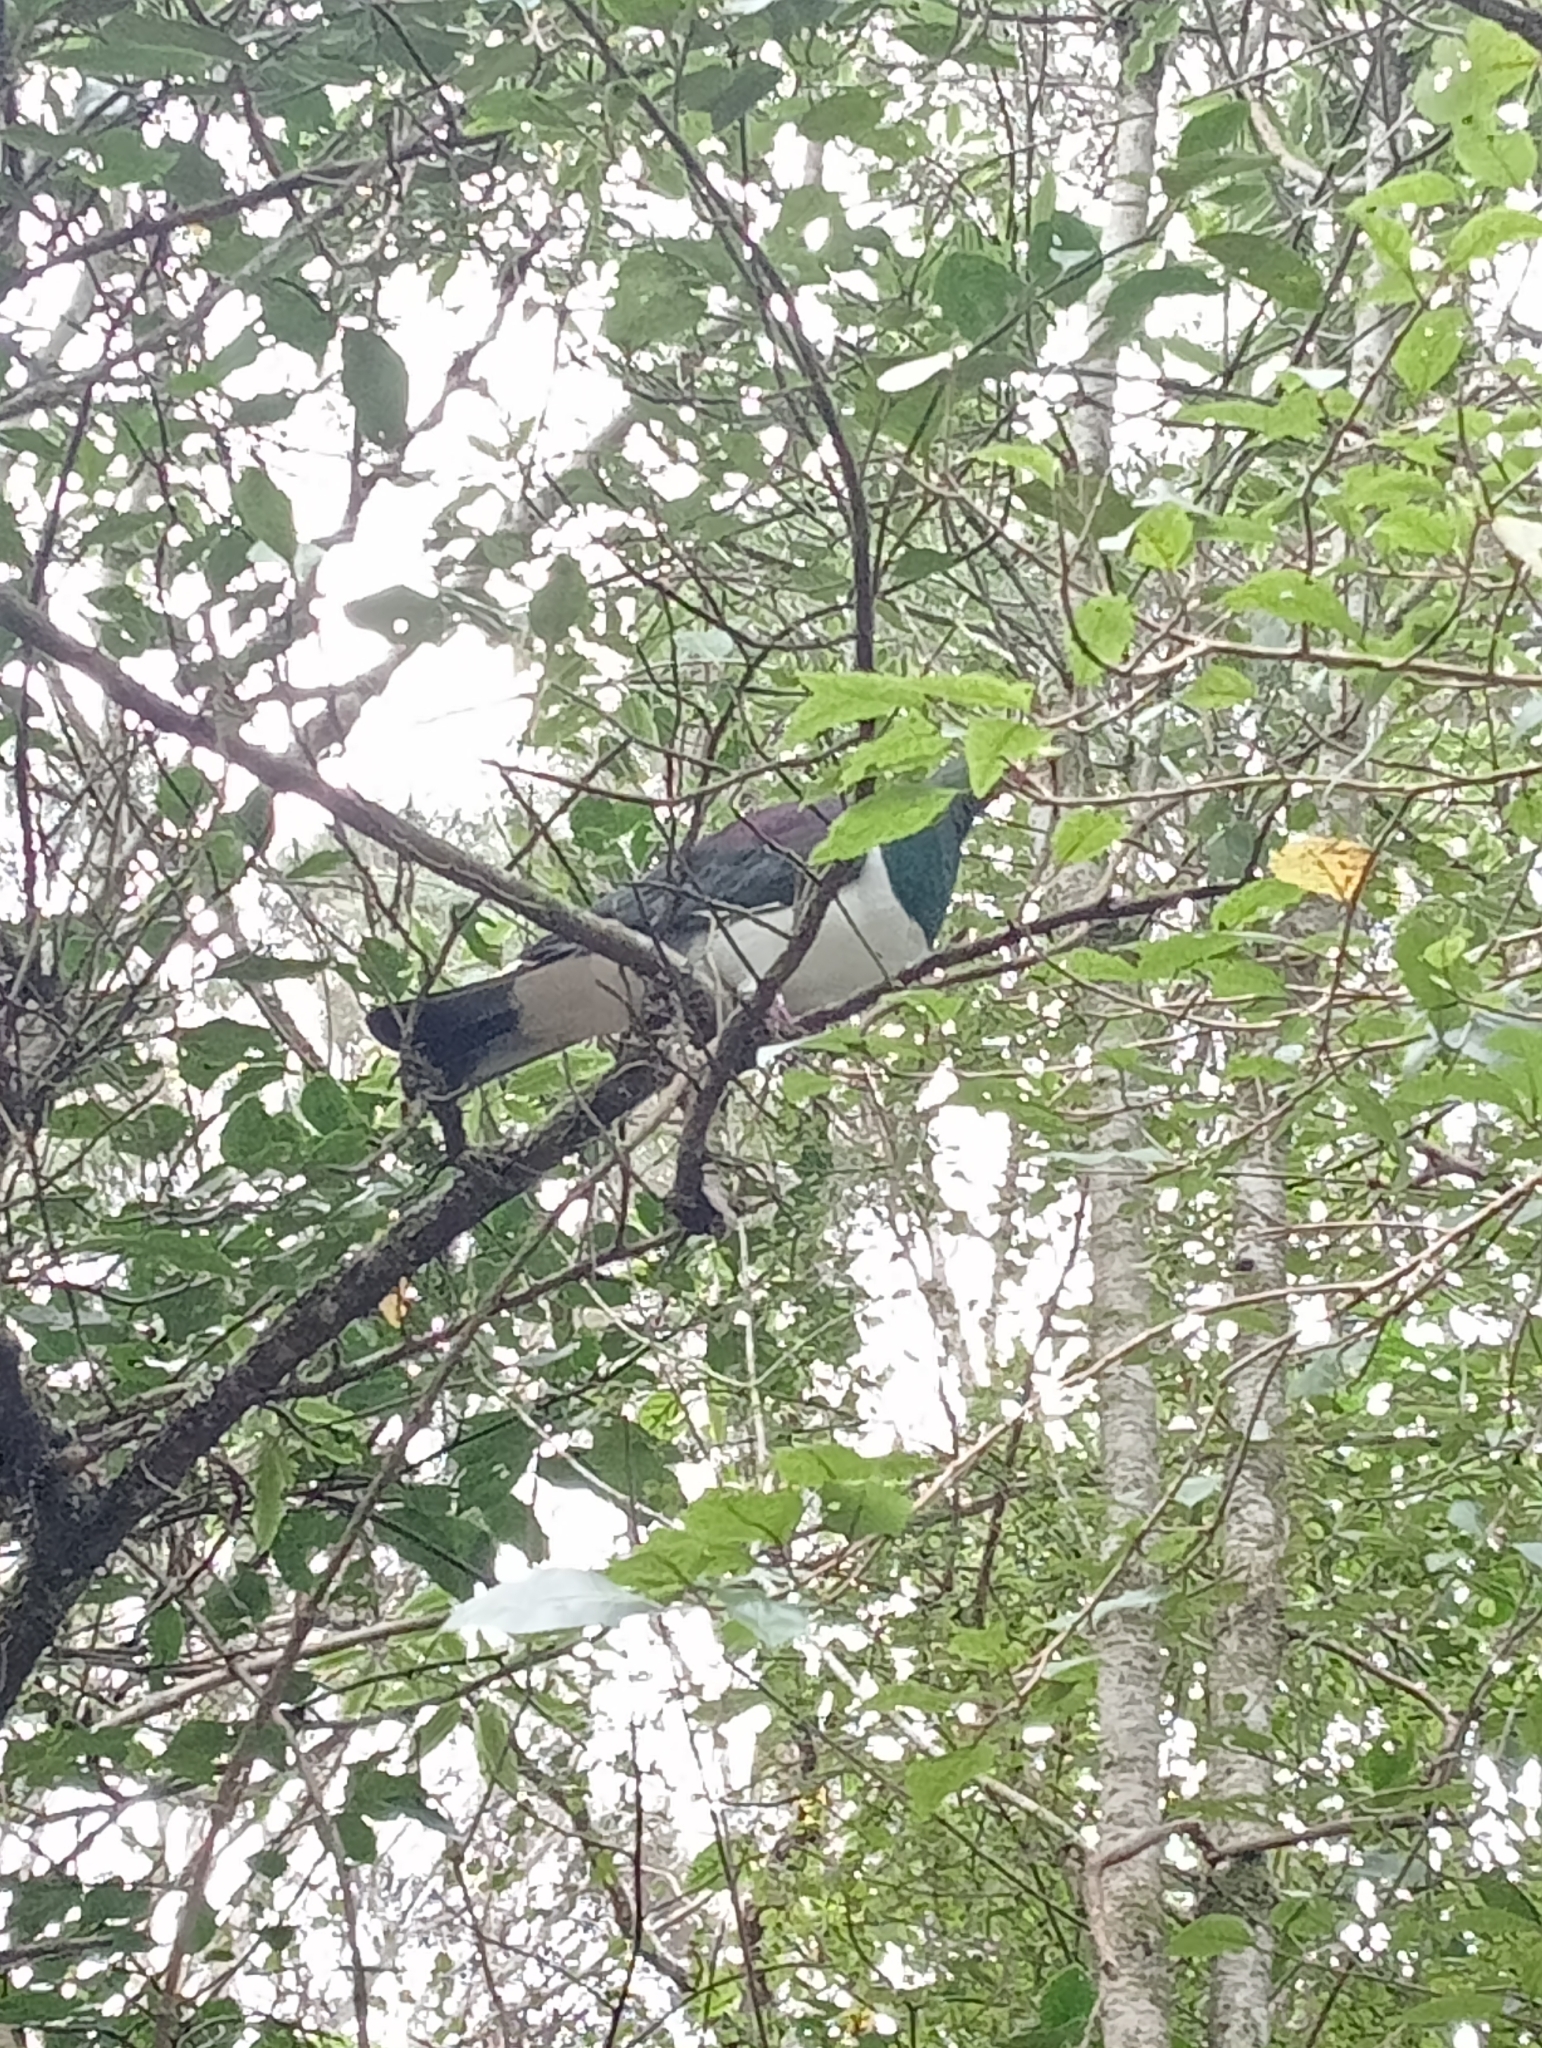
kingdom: Animalia
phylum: Chordata
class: Aves
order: Columbiformes
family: Columbidae
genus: Hemiphaga
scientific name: Hemiphaga novaeseelandiae
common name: New zealand pigeon
